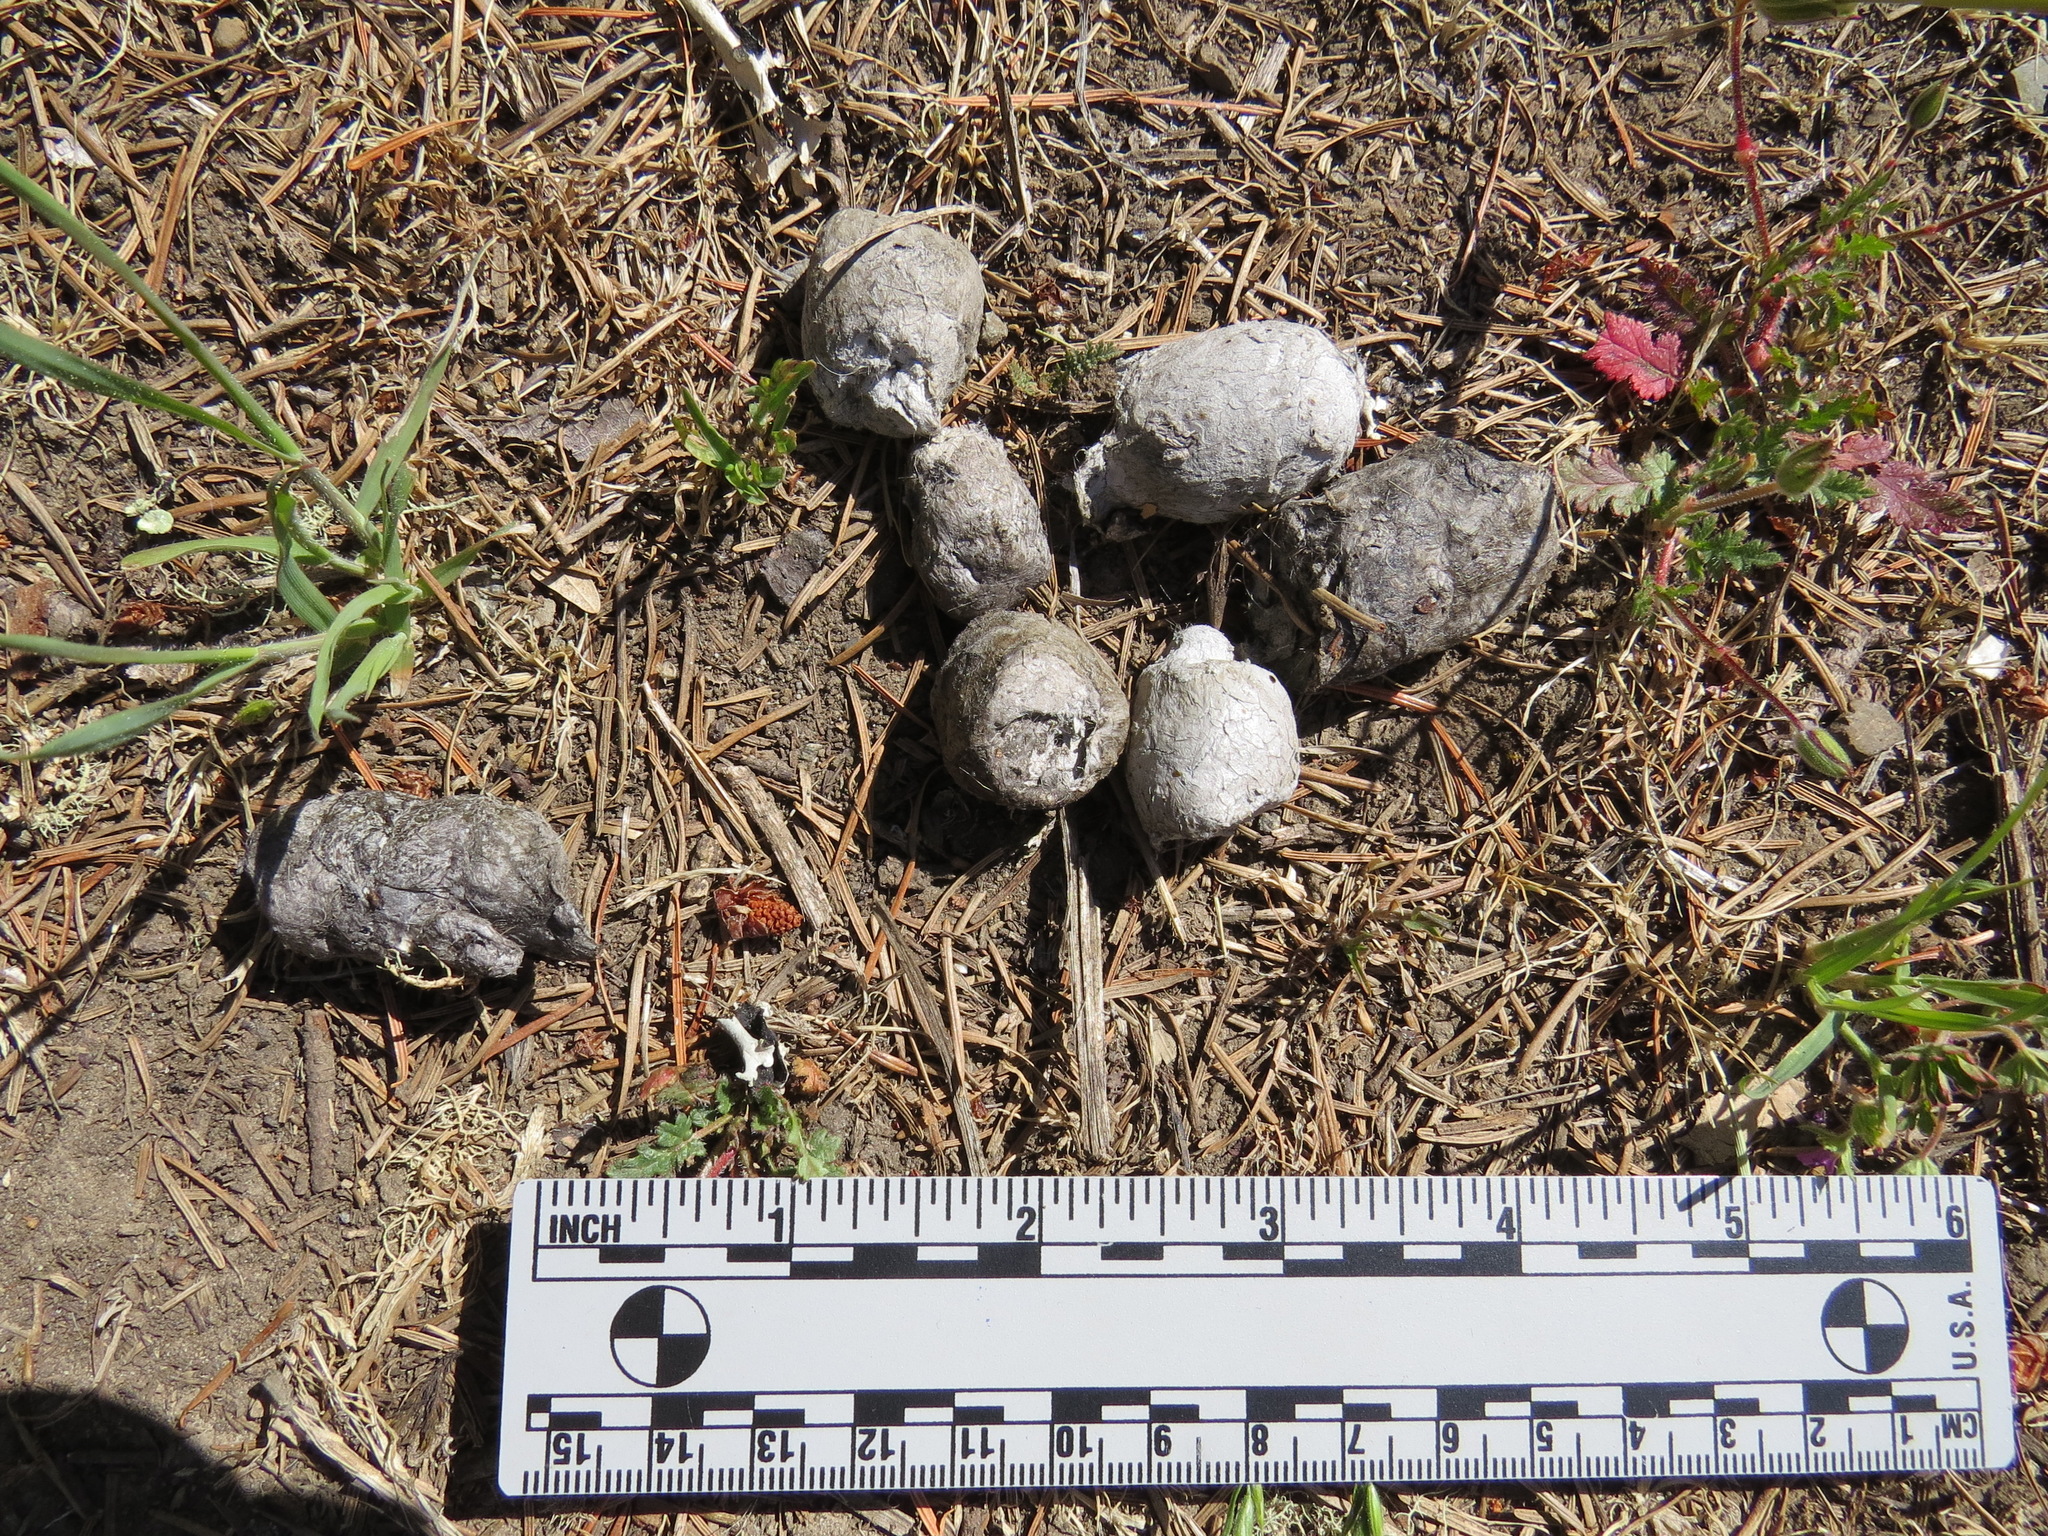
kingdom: Animalia
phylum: Chordata
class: Mammalia
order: Carnivora
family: Felidae
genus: Lynx
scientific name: Lynx rufus
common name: Bobcat
